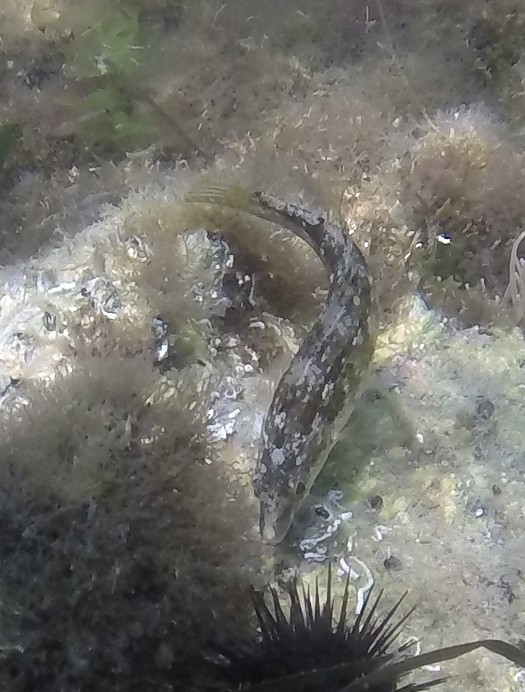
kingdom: Animalia
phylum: Chordata
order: Perciformes
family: Labridae
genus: Symphodus
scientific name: Symphodus cinereus
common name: Grey wrasse
